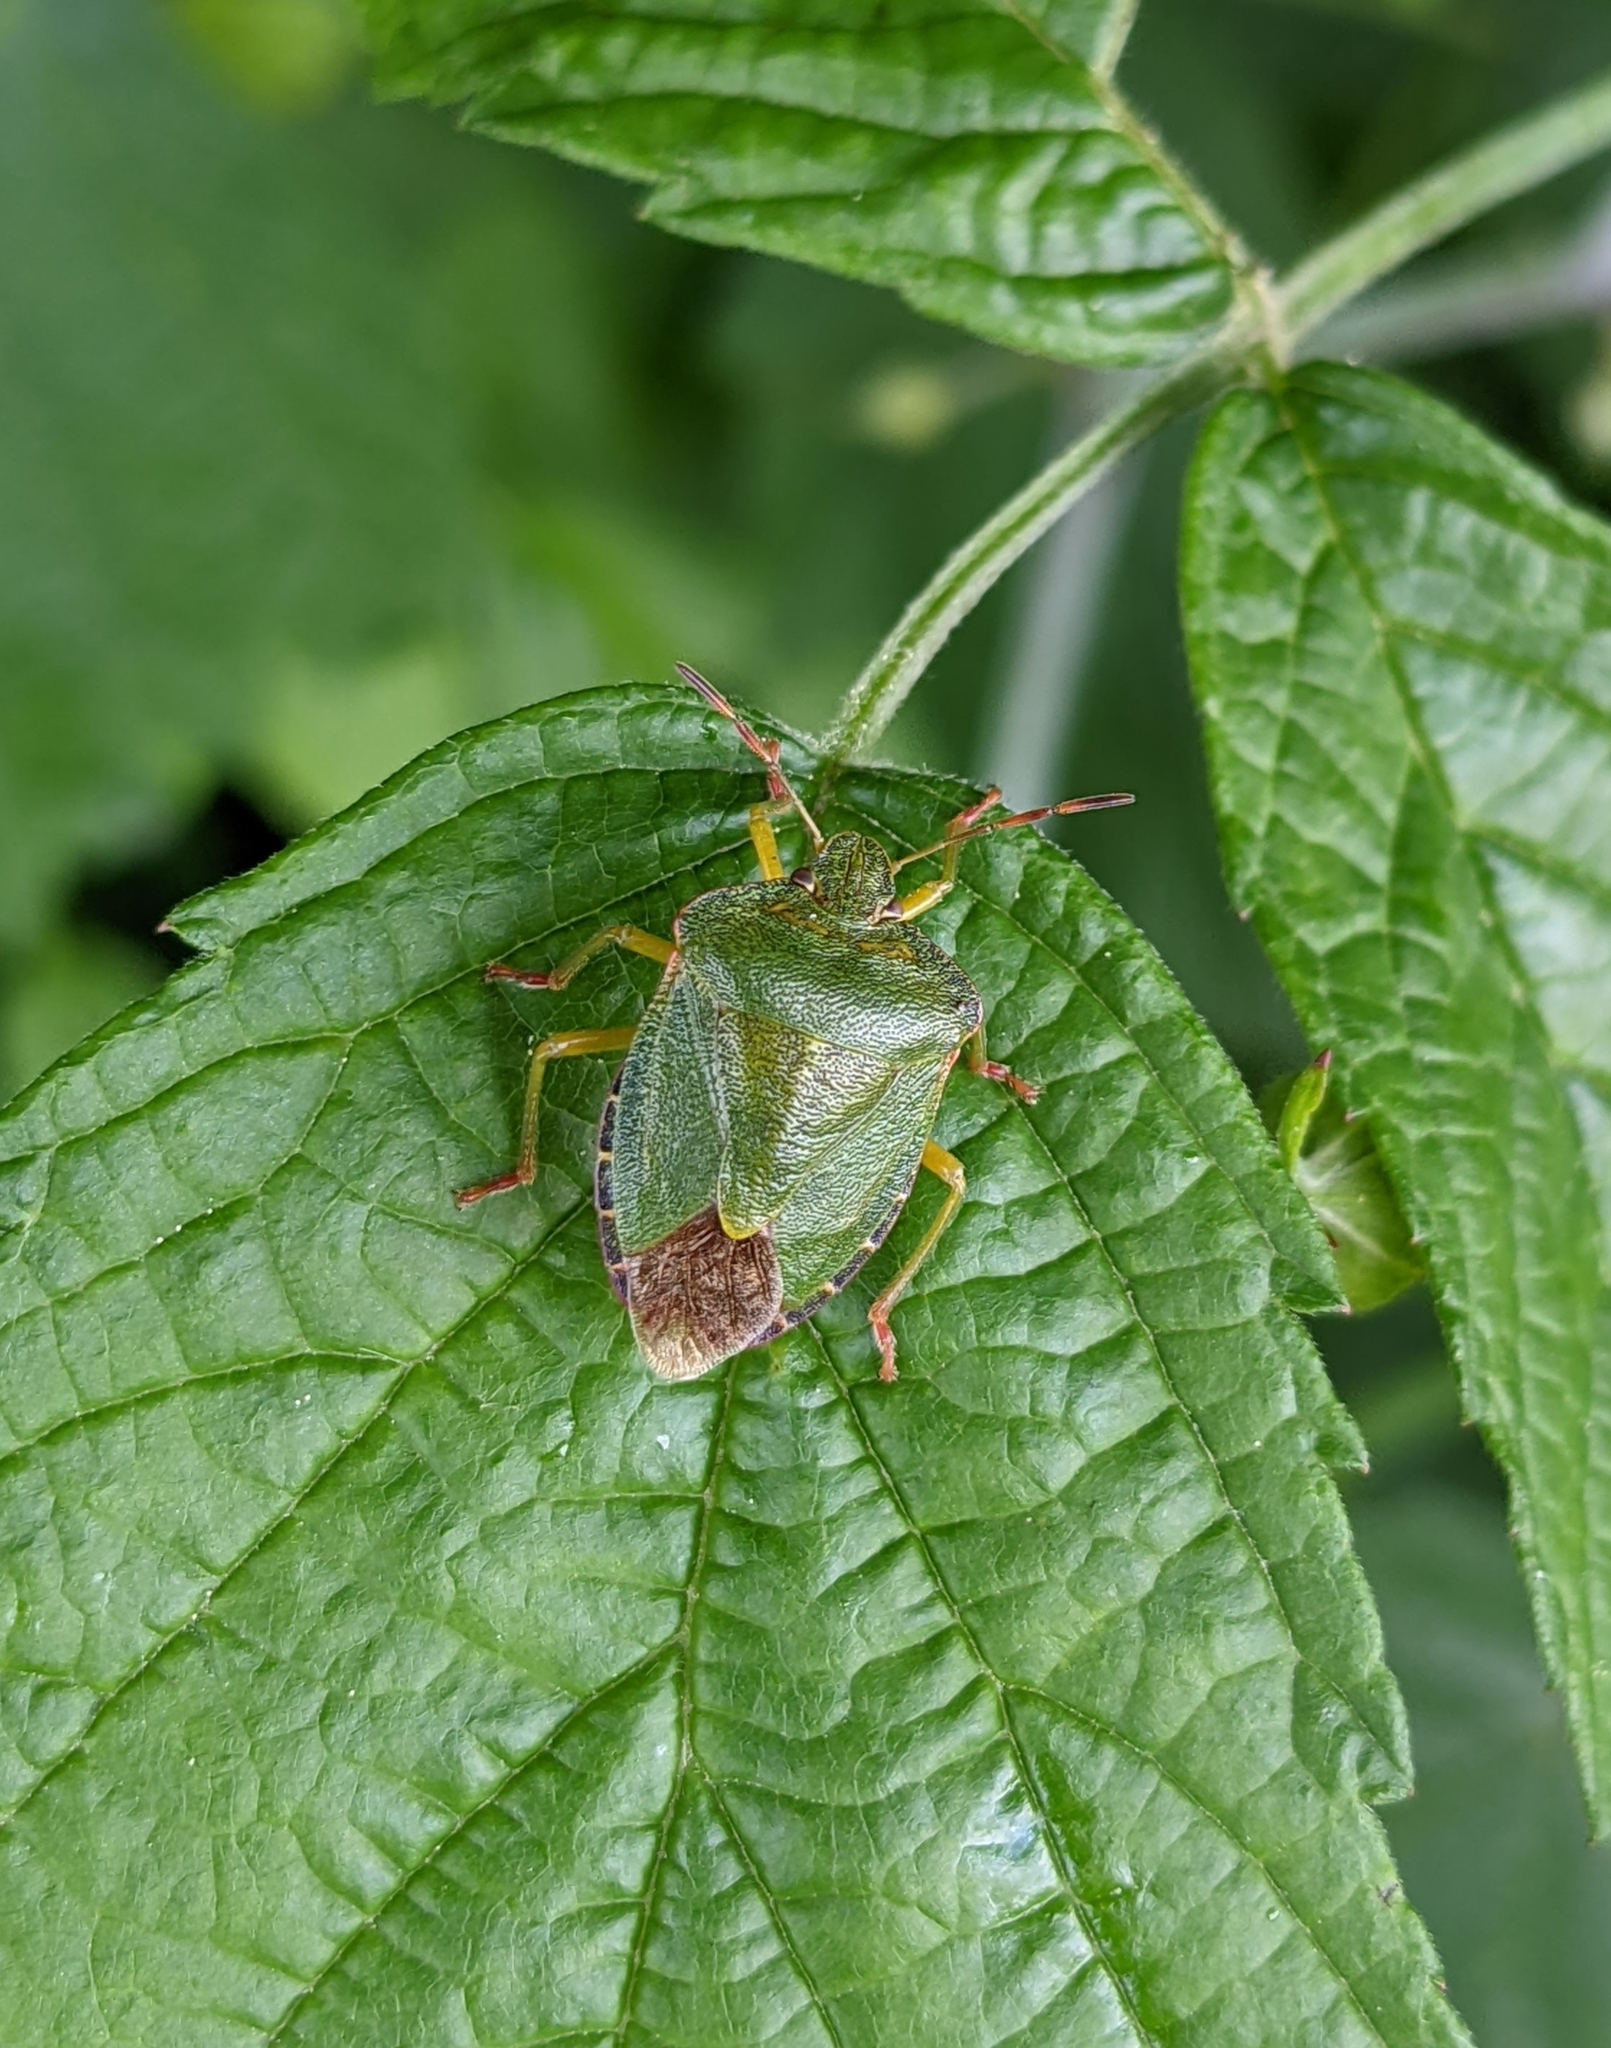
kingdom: Animalia
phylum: Arthropoda
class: Insecta
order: Hemiptera
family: Pentatomidae
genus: Palomena
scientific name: Palomena prasina
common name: Green shieldbug
